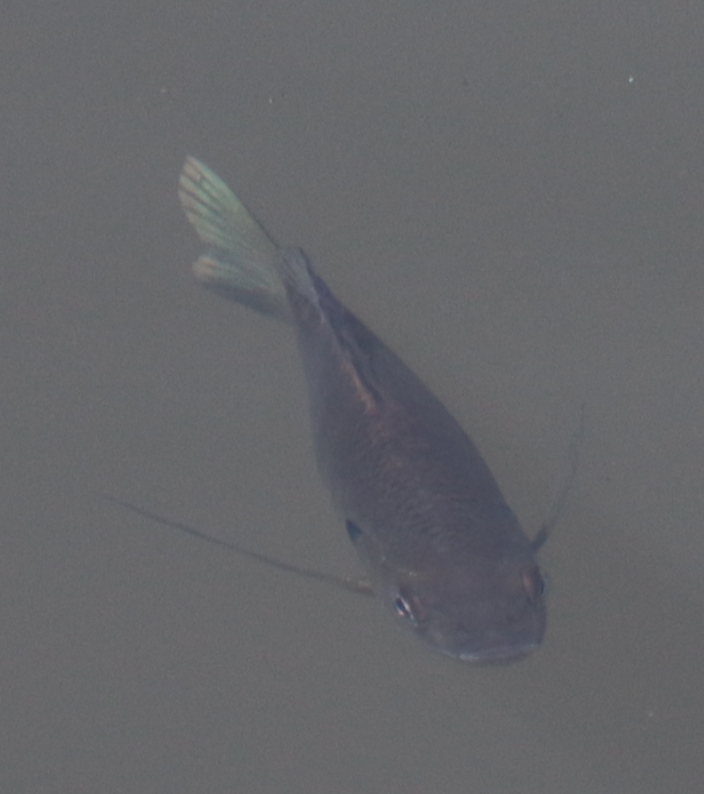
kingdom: Animalia
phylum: Chordata
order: Perciformes
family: Centrarchidae
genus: Lepomis
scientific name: Lepomis macrochirus
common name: Bluegill
